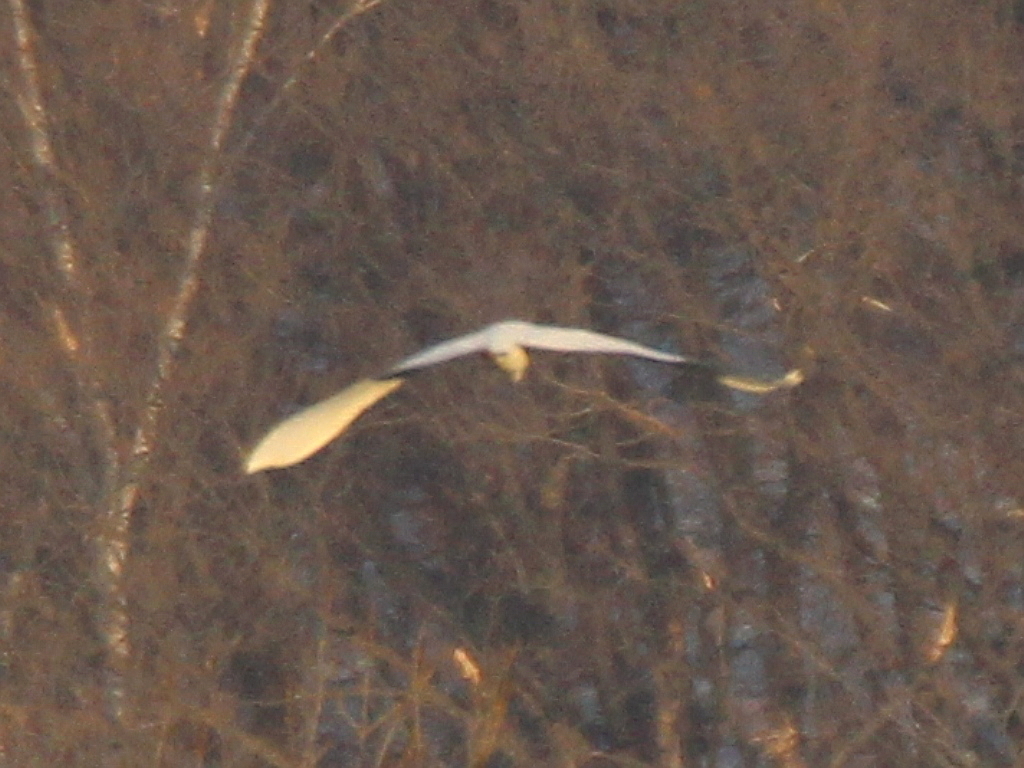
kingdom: Animalia
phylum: Chordata
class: Aves
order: Pelecaniformes
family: Ardeidae
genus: Ardea
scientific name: Ardea alba
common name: Great egret
